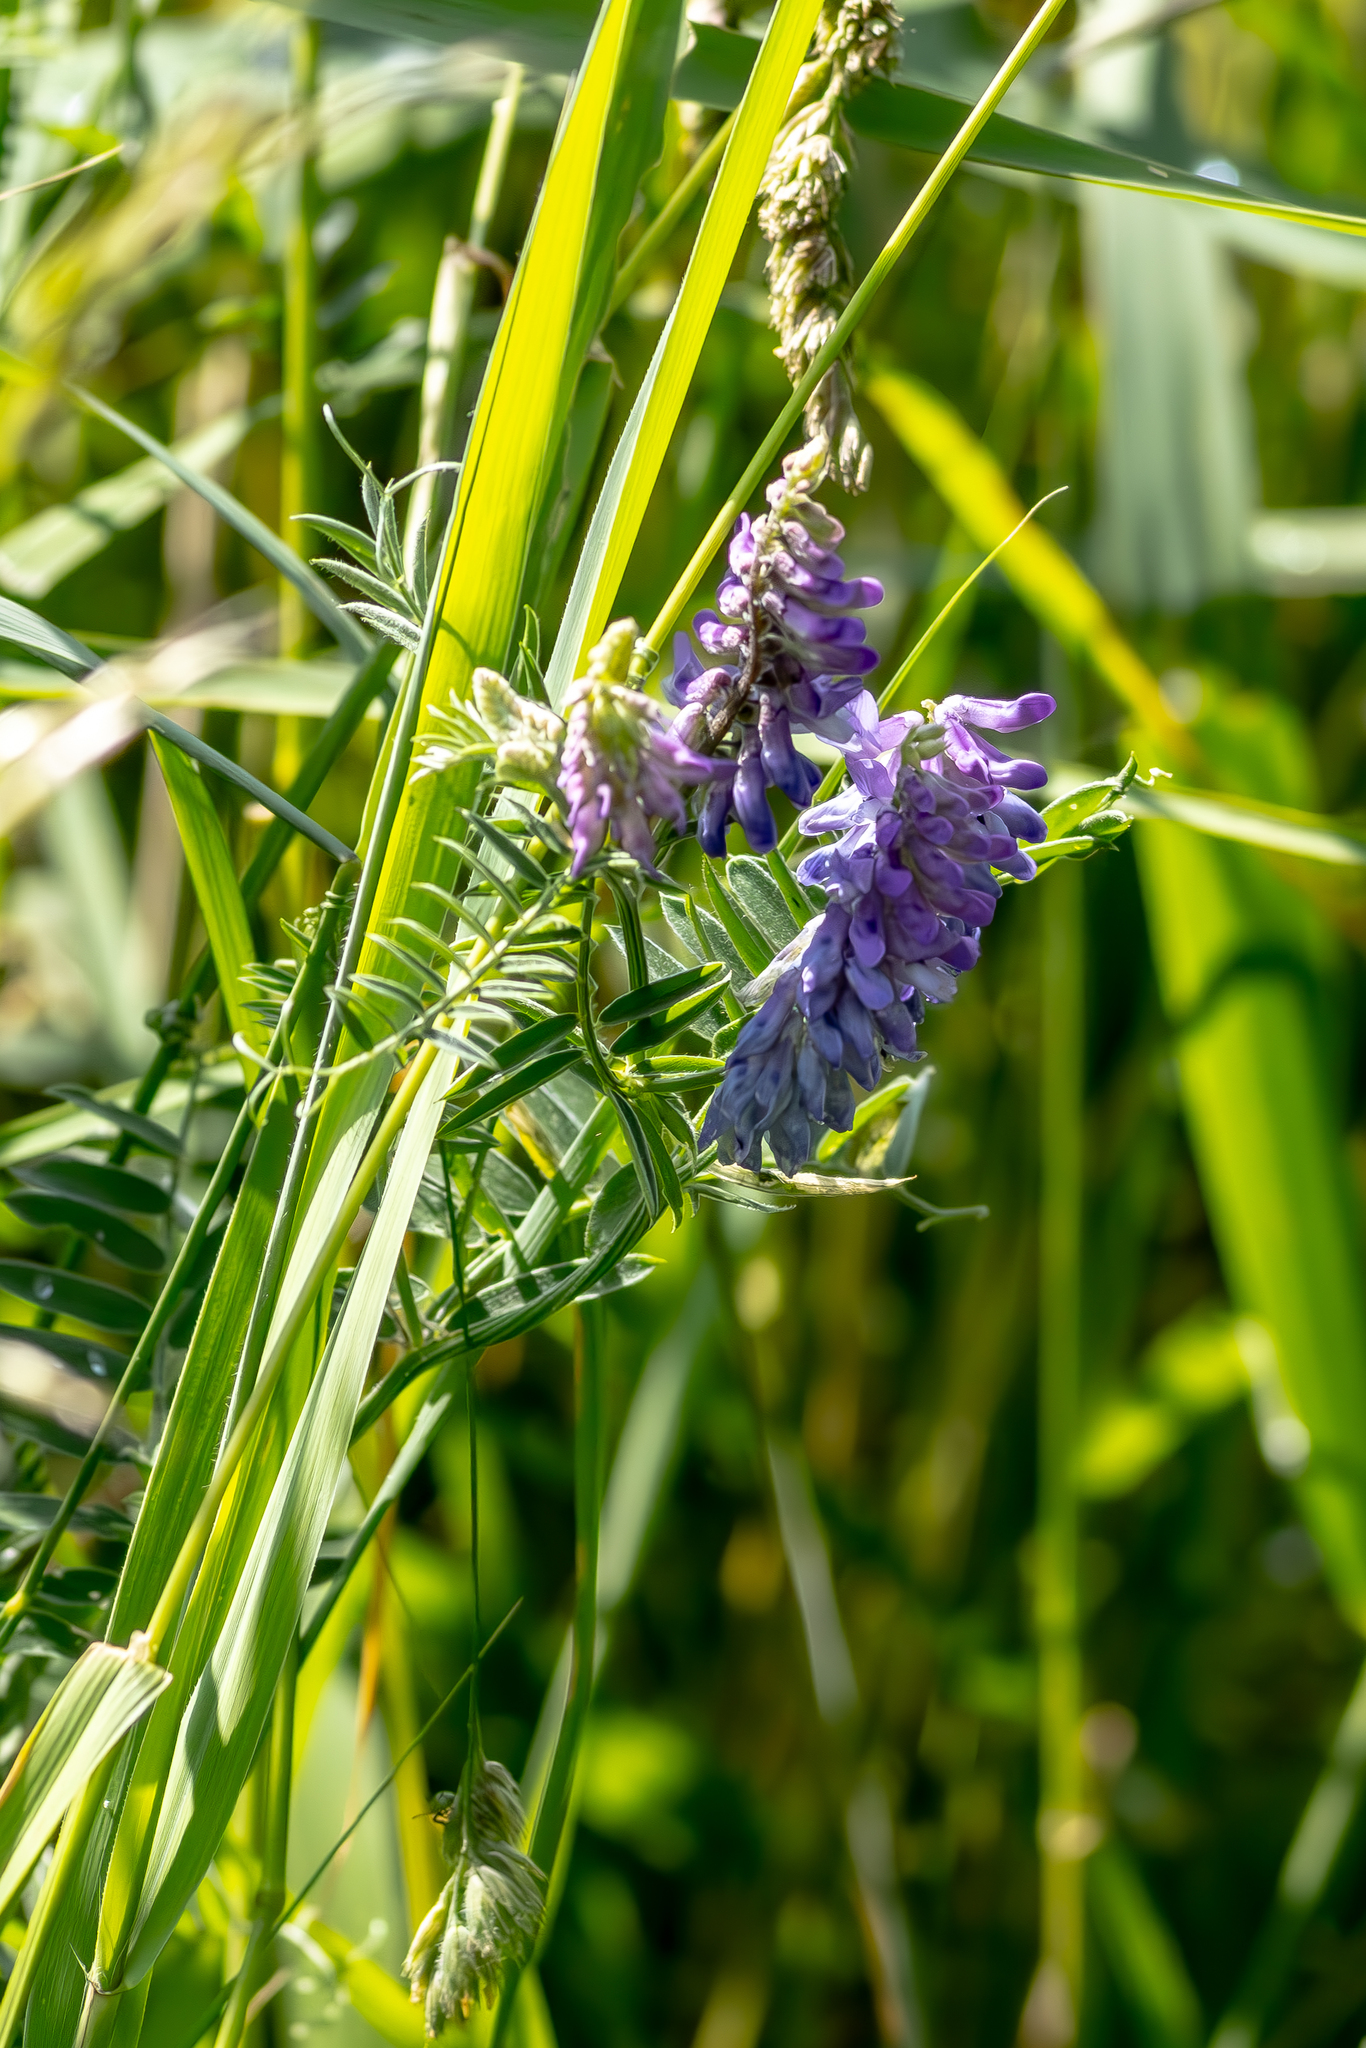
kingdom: Plantae
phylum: Tracheophyta
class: Magnoliopsida
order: Fabales
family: Fabaceae
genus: Vicia
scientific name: Vicia cracca
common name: Bird vetch
